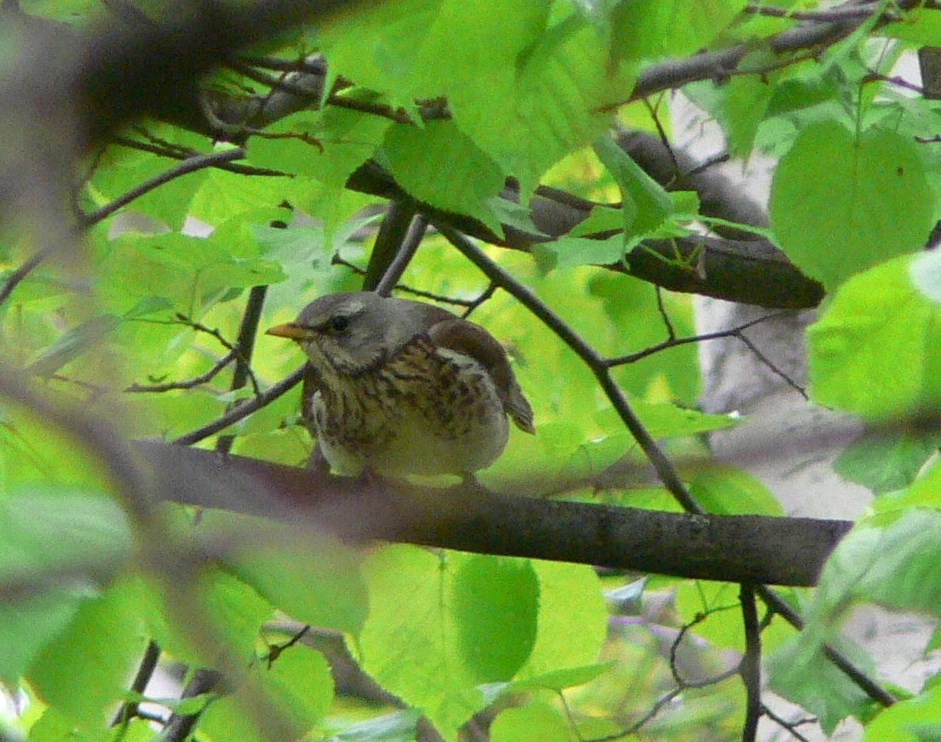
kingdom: Animalia
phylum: Chordata
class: Aves
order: Passeriformes
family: Turdidae
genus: Turdus
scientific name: Turdus pilaris
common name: Fieldfare
